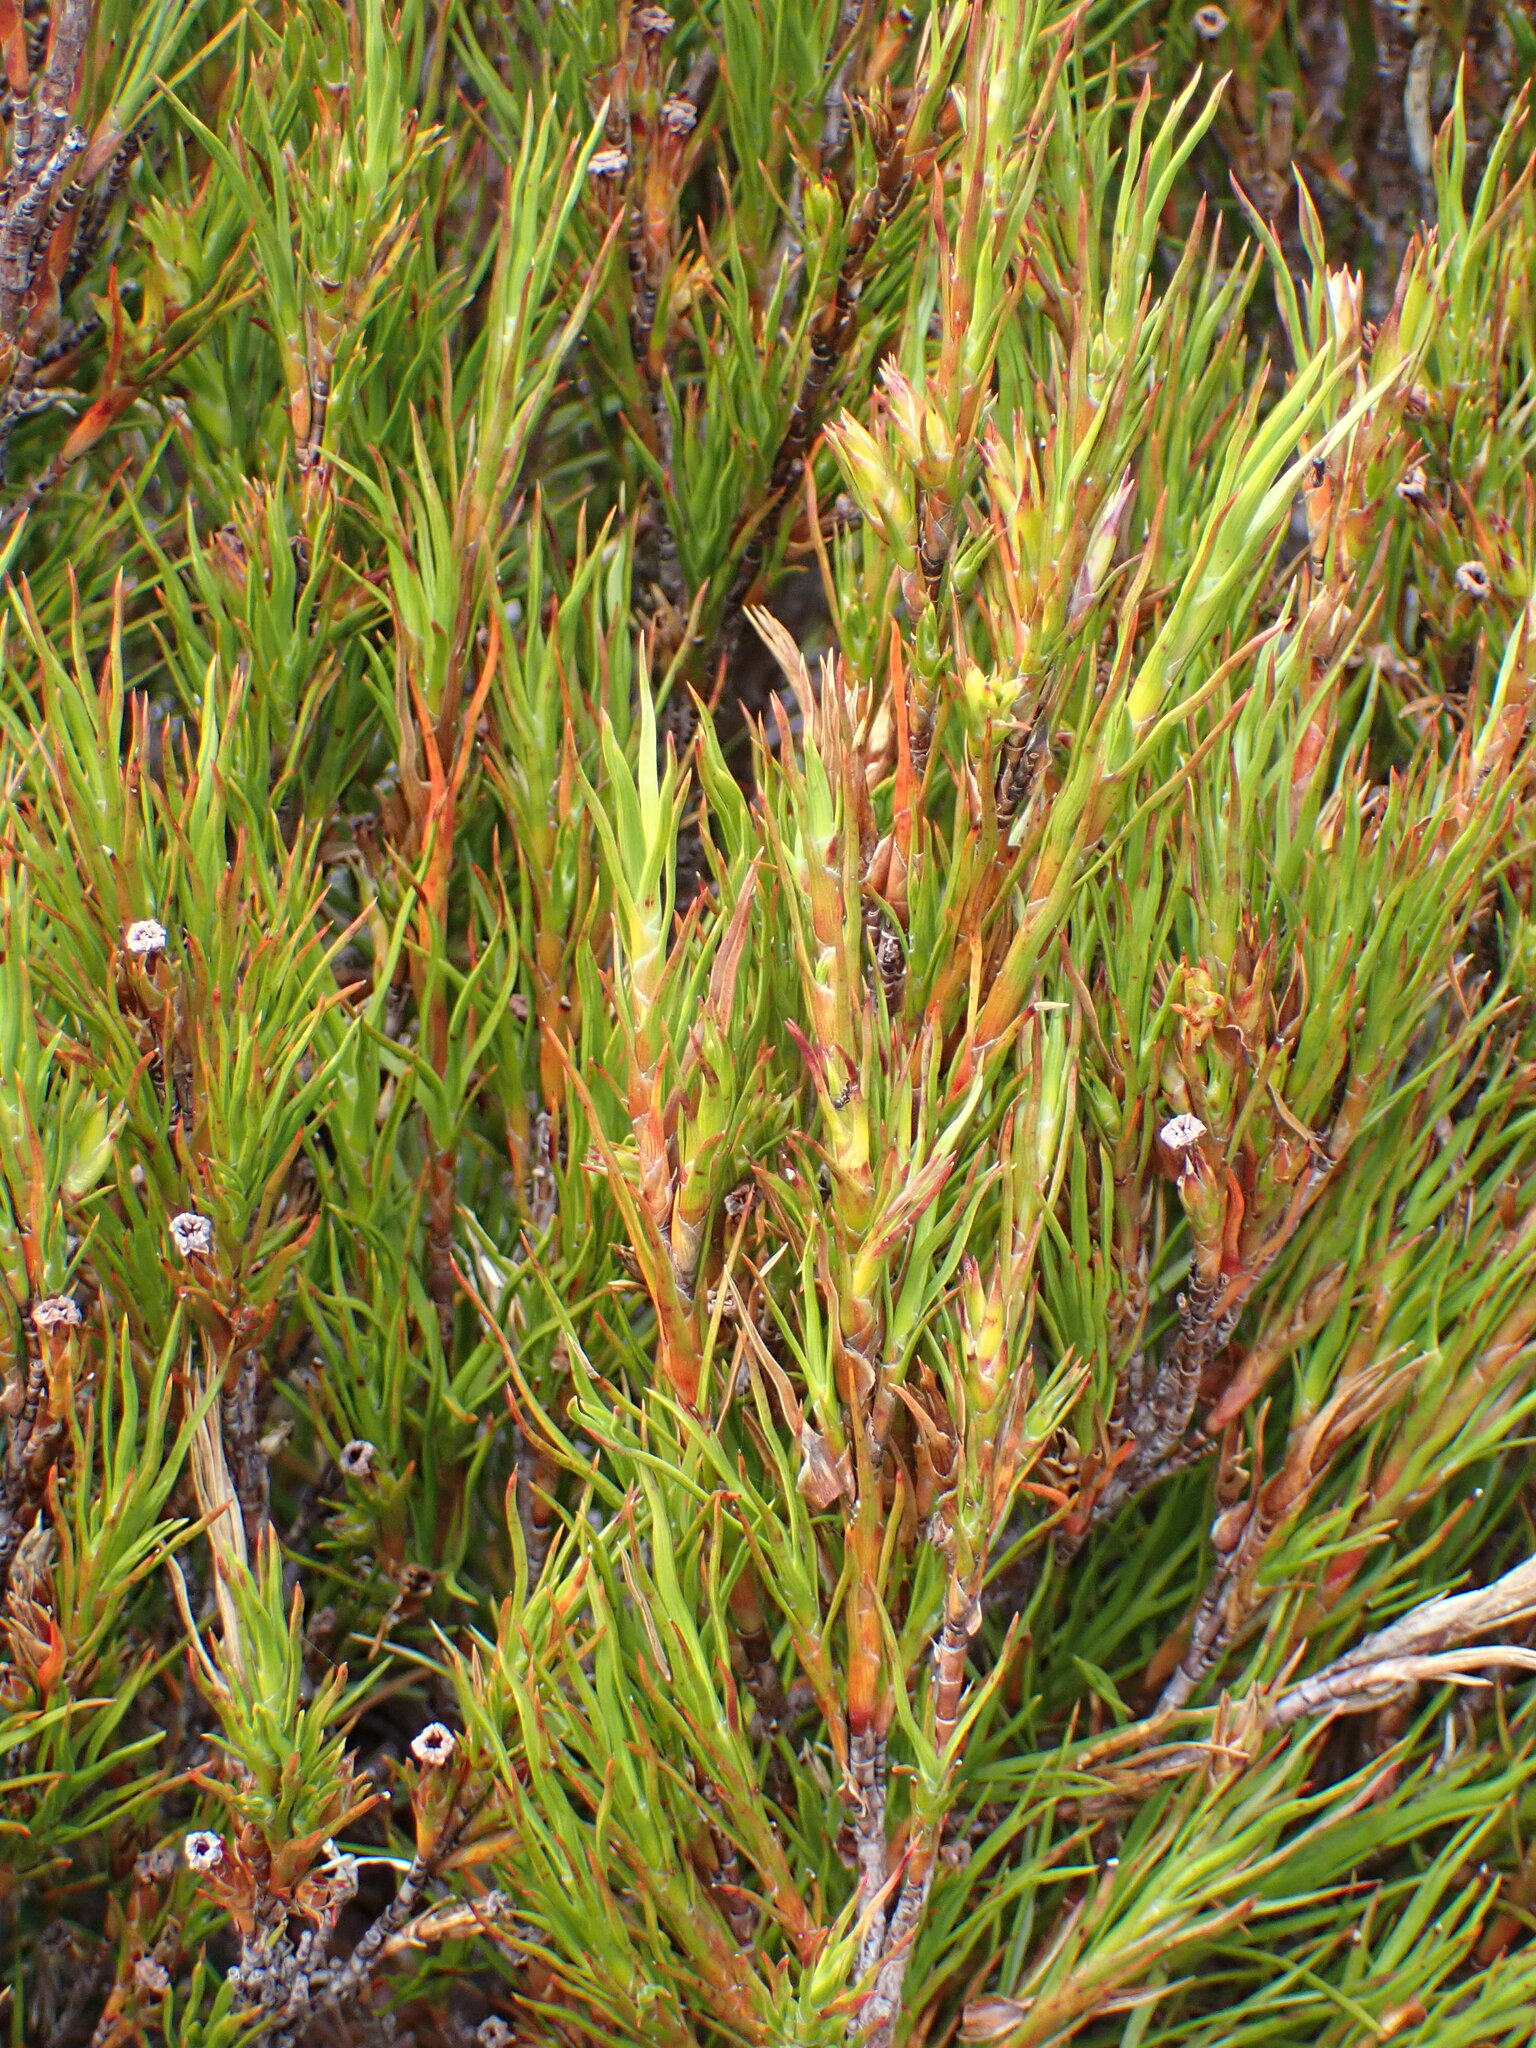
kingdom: Plantae
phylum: Tracheophyta
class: Magnoliopsida
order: Ericales
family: Ericaceae
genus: Dracophyllum
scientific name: Dracophyllum rosmarinifolium
